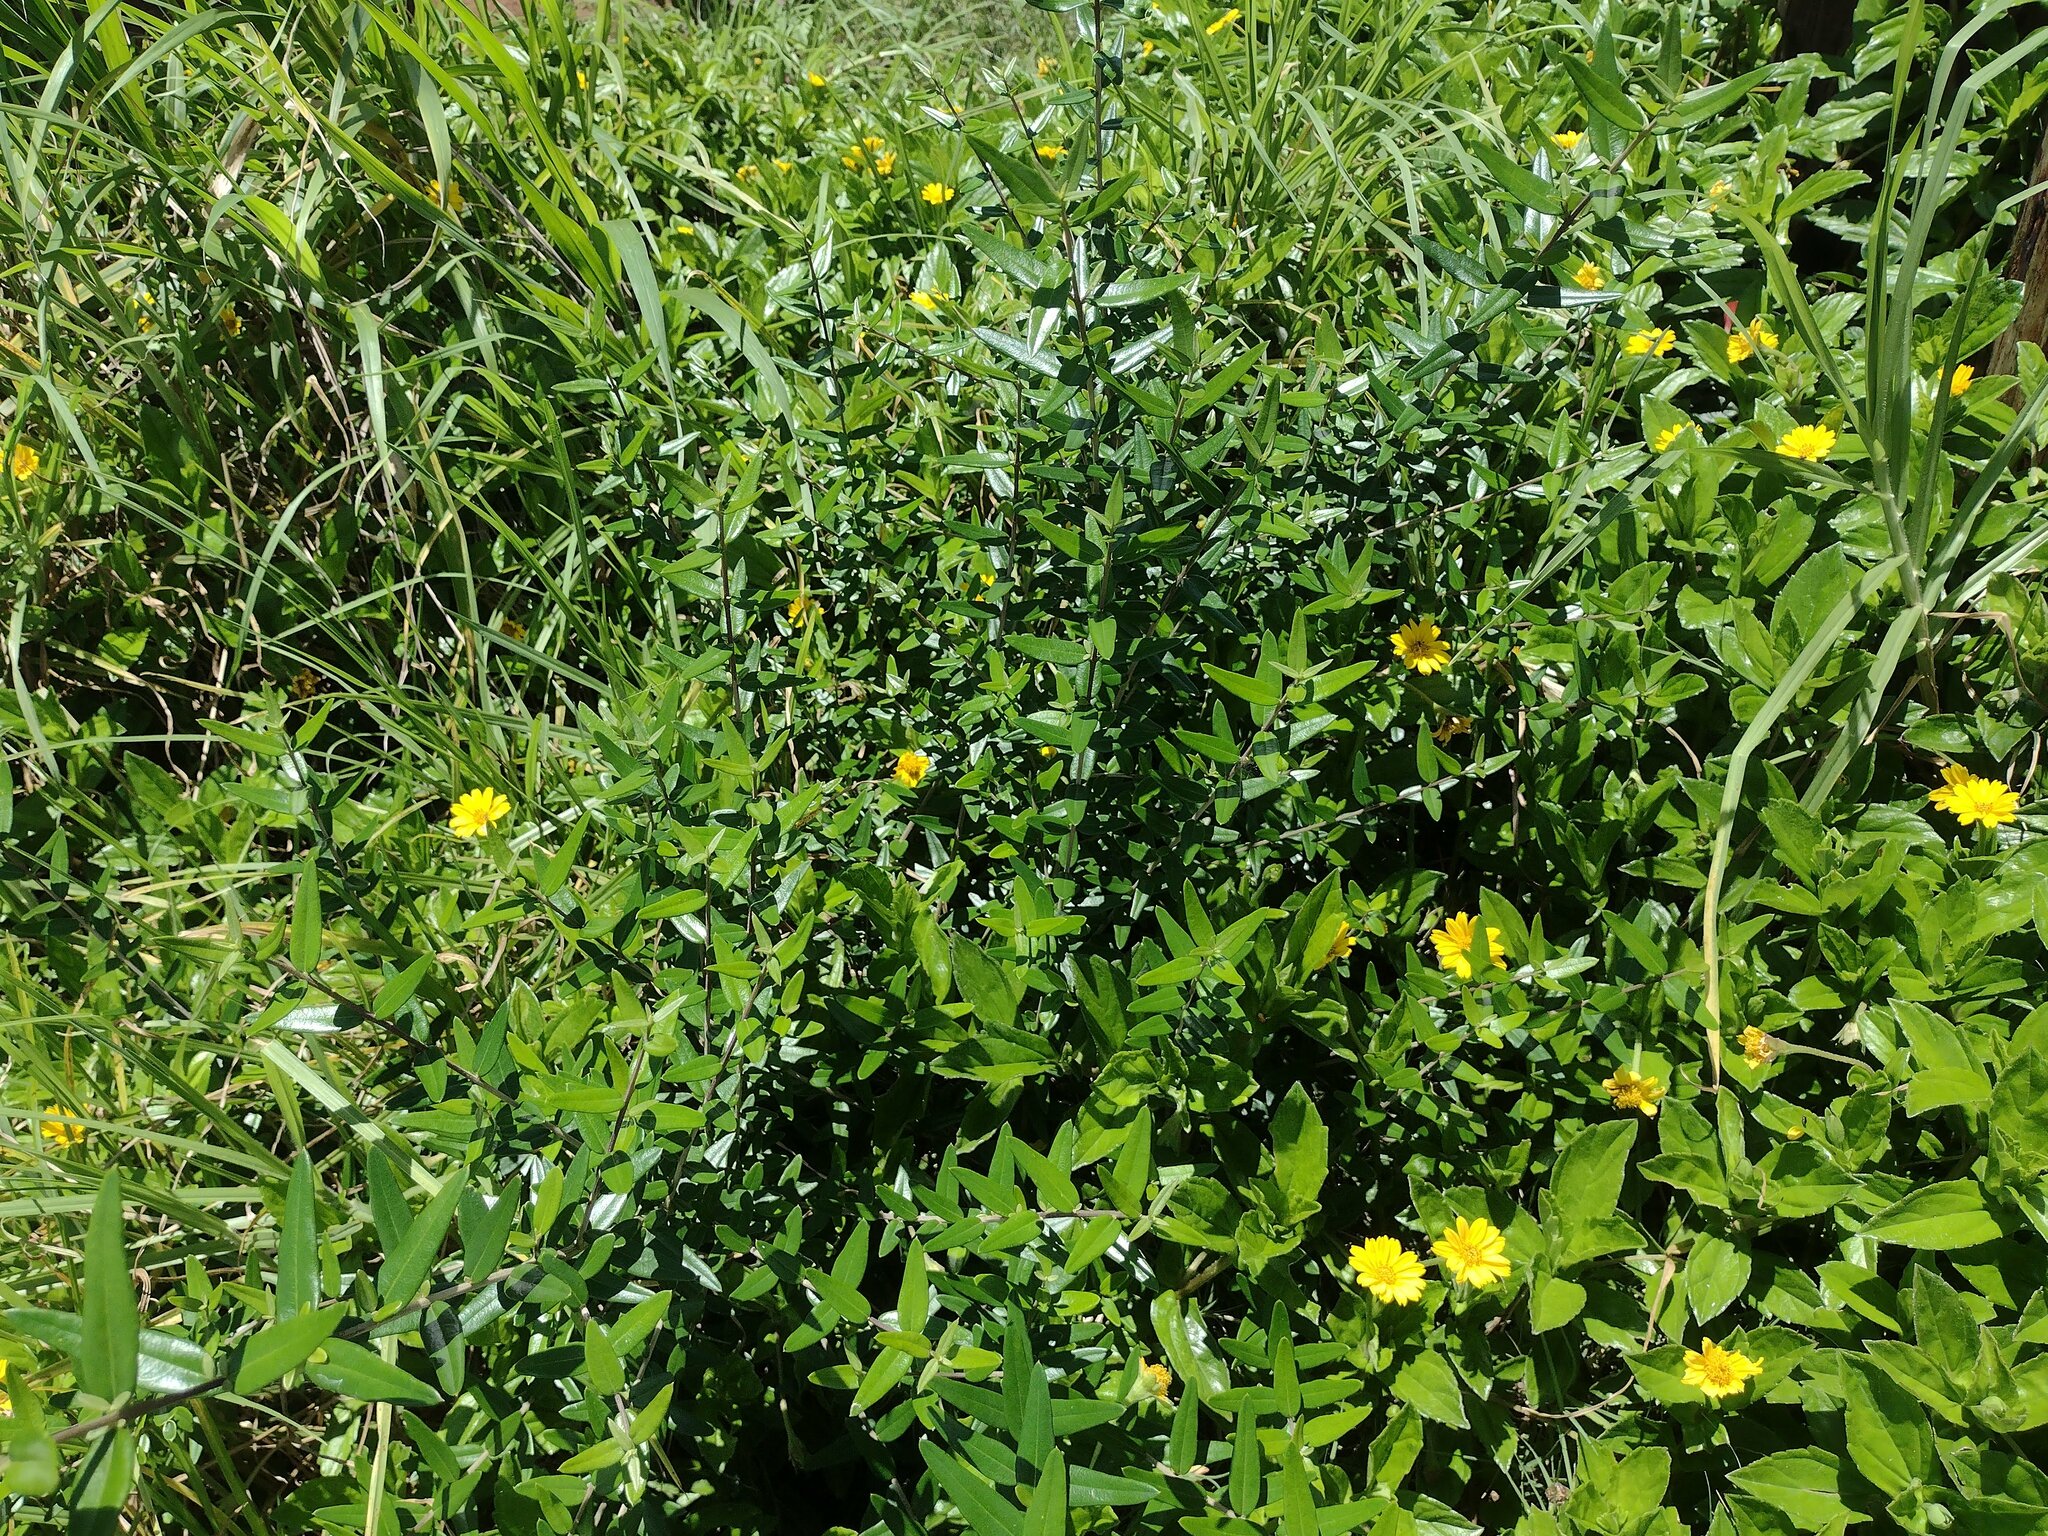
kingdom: Plantae
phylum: Tracheophyta
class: Magnoliopsida
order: Lamiales
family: Oleaceae
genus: Olea
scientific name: Olea europaea
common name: Olive
